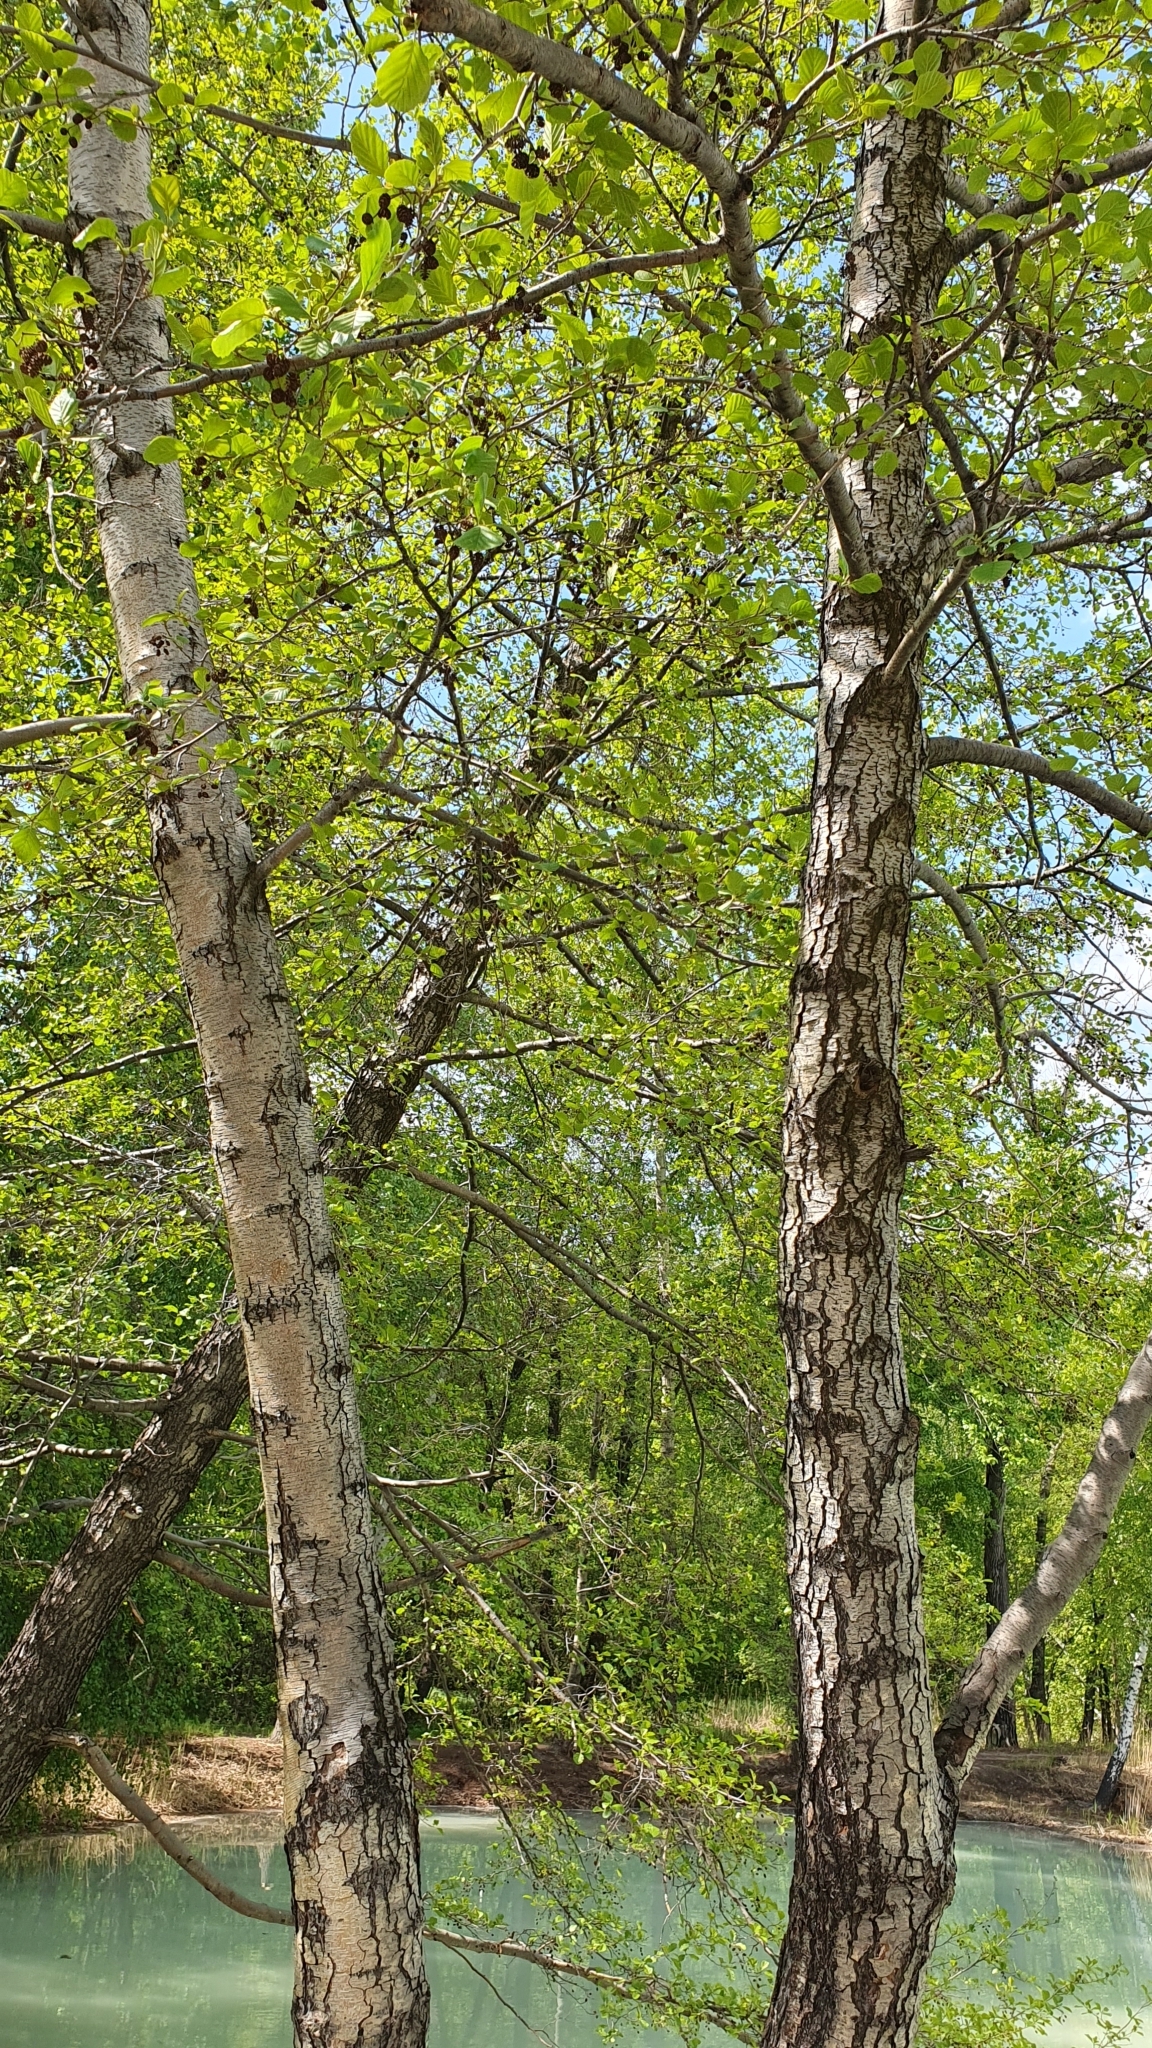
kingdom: Plantae
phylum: Tracheophyta
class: Magnoliopsida
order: Fagales
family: Betulaceae
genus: Alnus
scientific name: Alnus glutinosa
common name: Black alder
